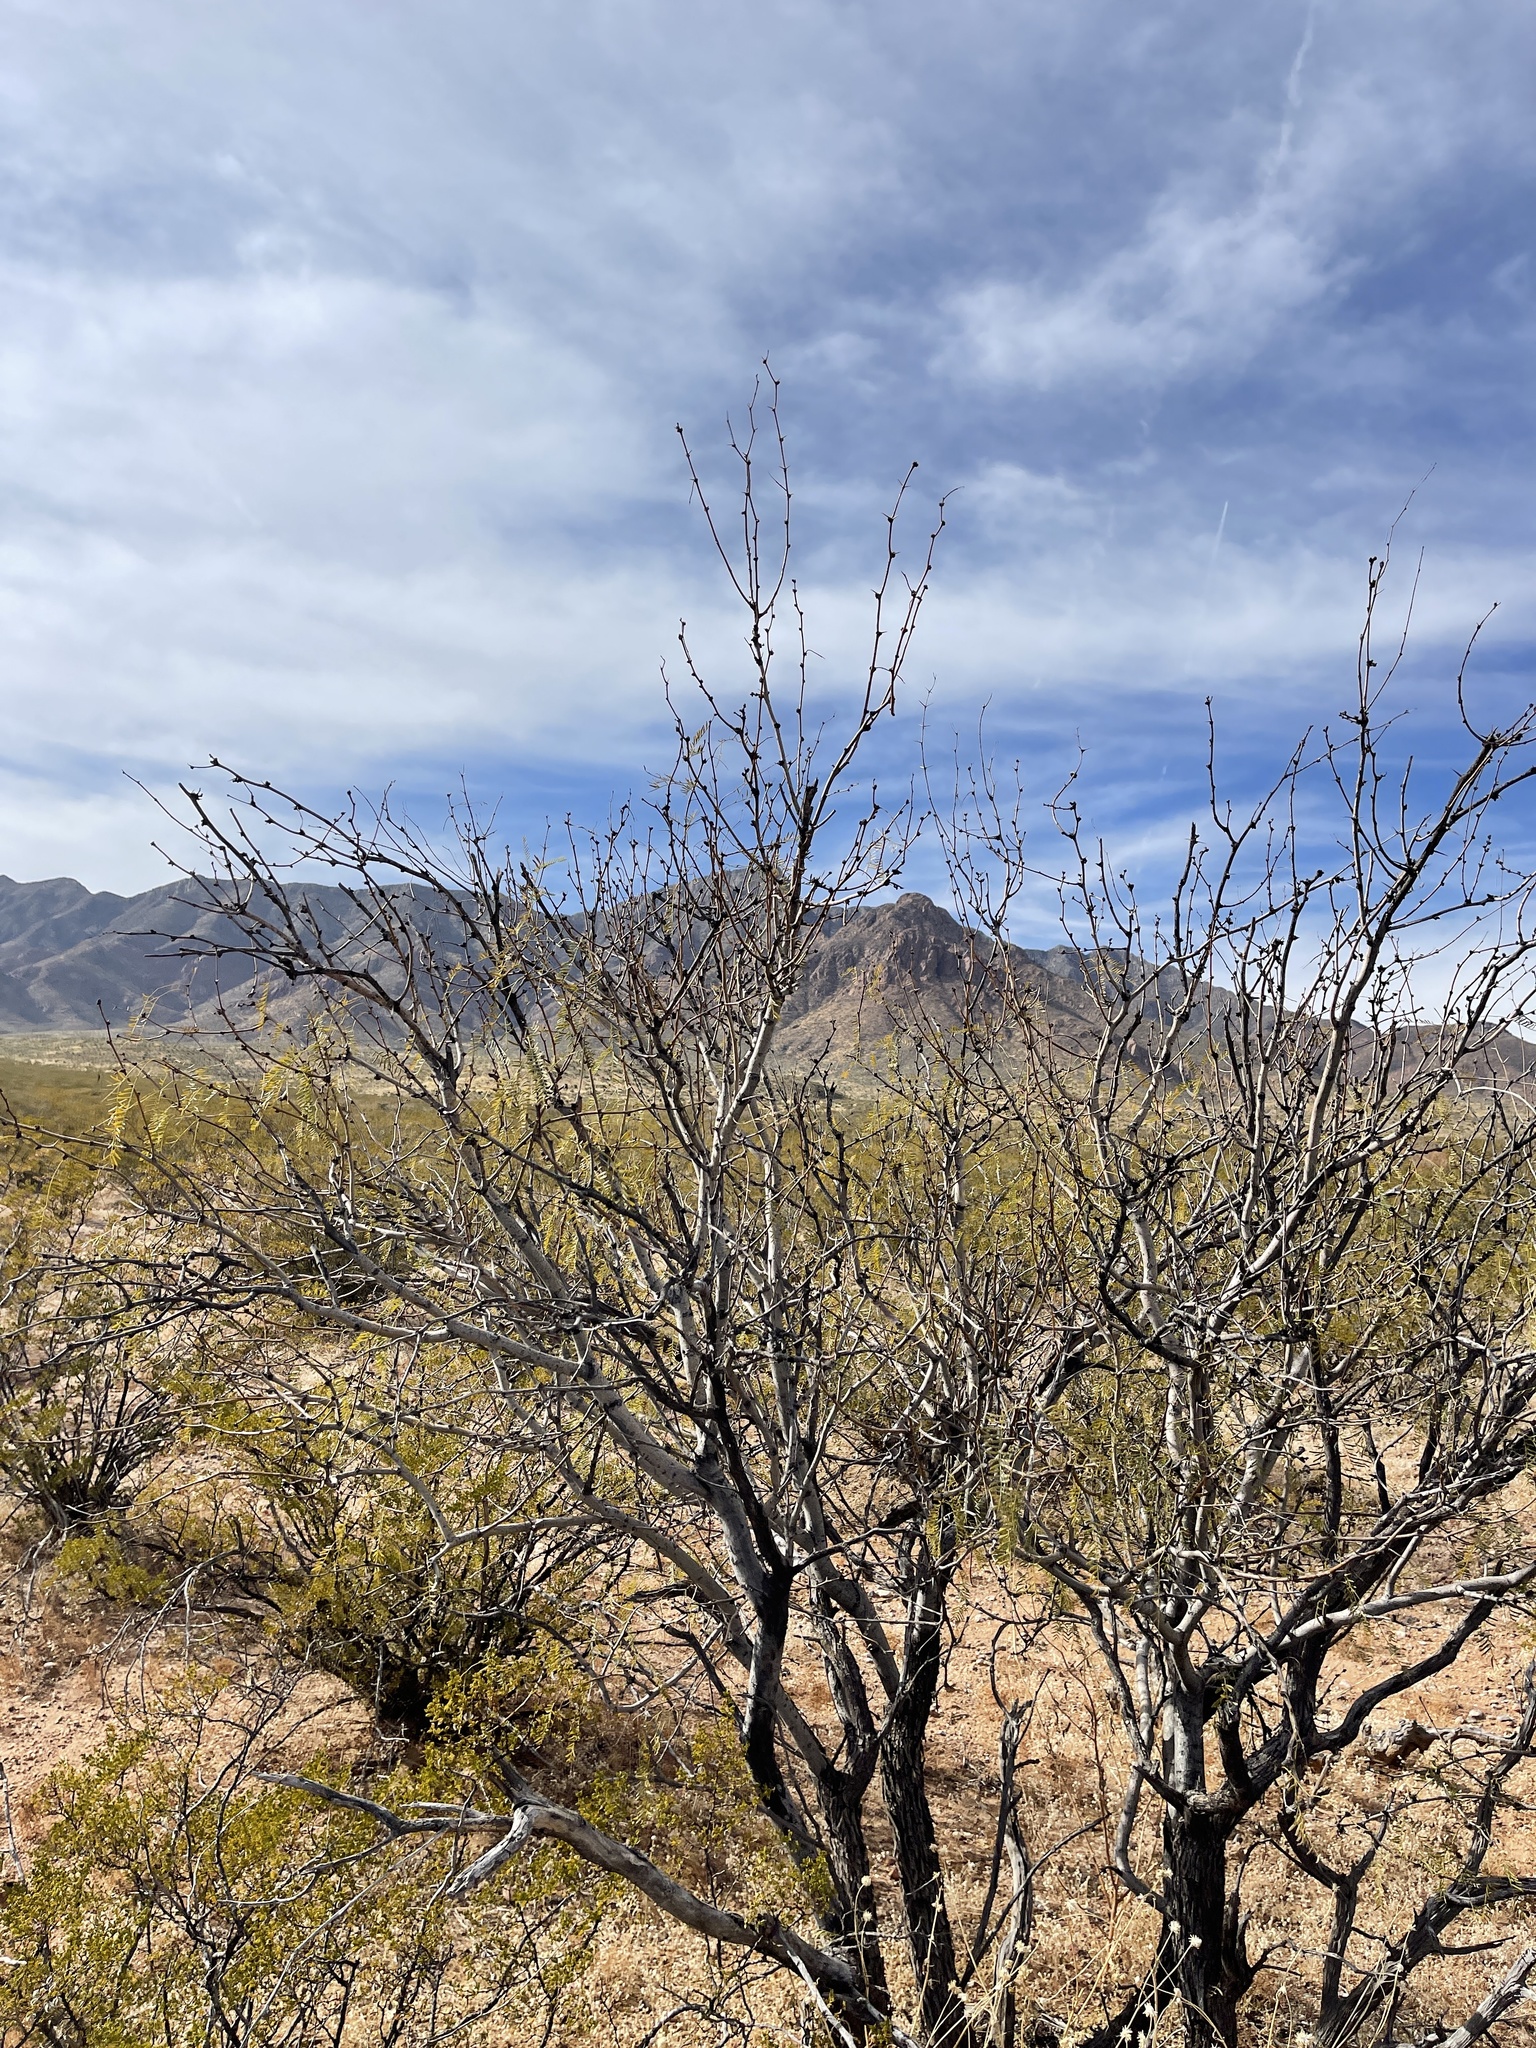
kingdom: Plantae
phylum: Tracheophyta
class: Magnoliopsida
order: Fabales
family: Fabaceae
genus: Prosopis
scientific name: Prosopis glandulosa
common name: Honey mesquite
